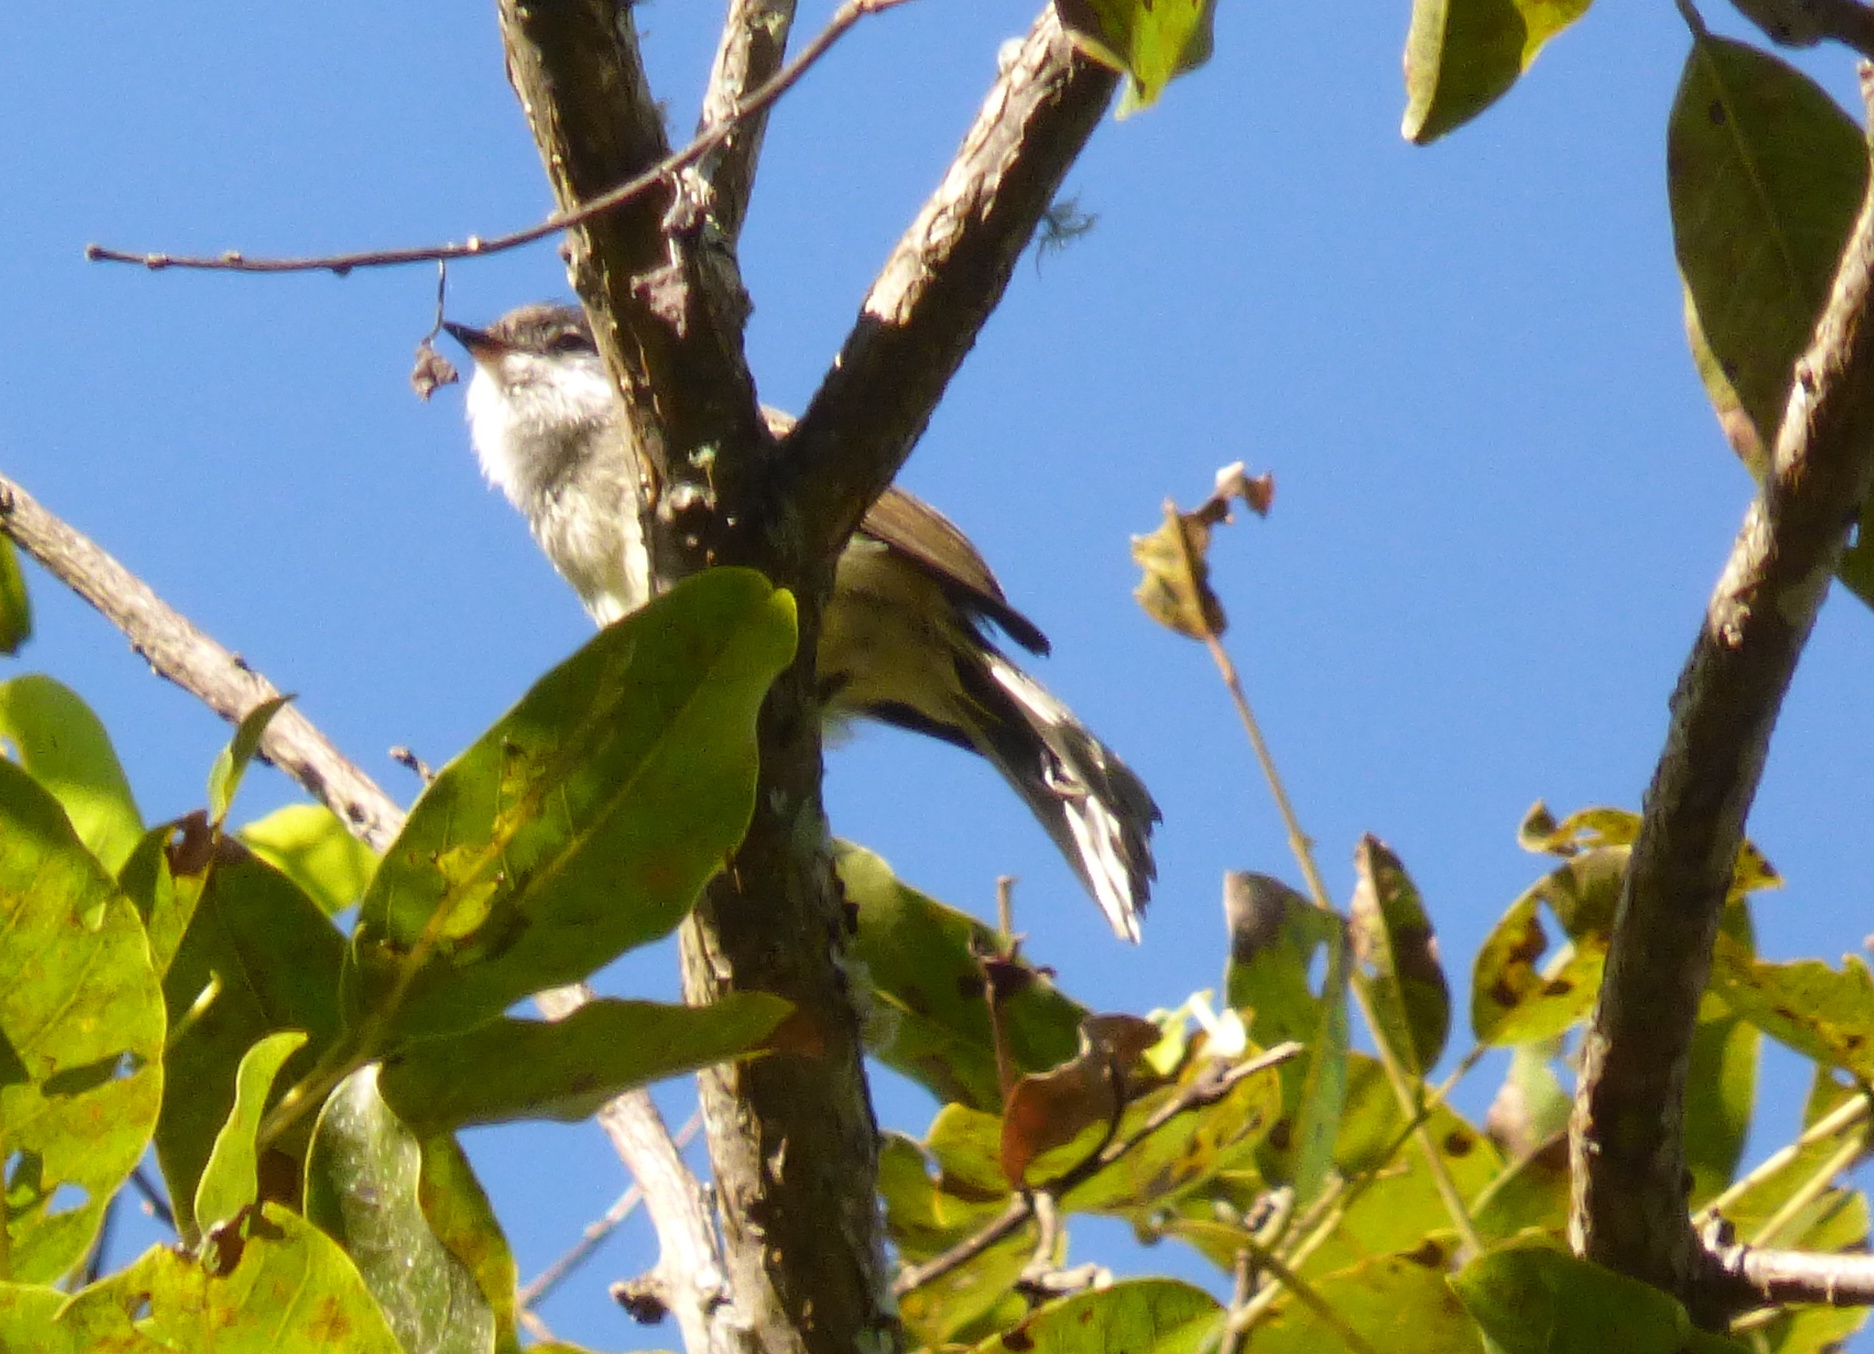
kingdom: Animalia
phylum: Chordata
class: Aves
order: Passeriformes
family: Tyrannidae
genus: Mecocerculus
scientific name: Mecocerculus leucophrys
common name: White-throated tyrannulet
